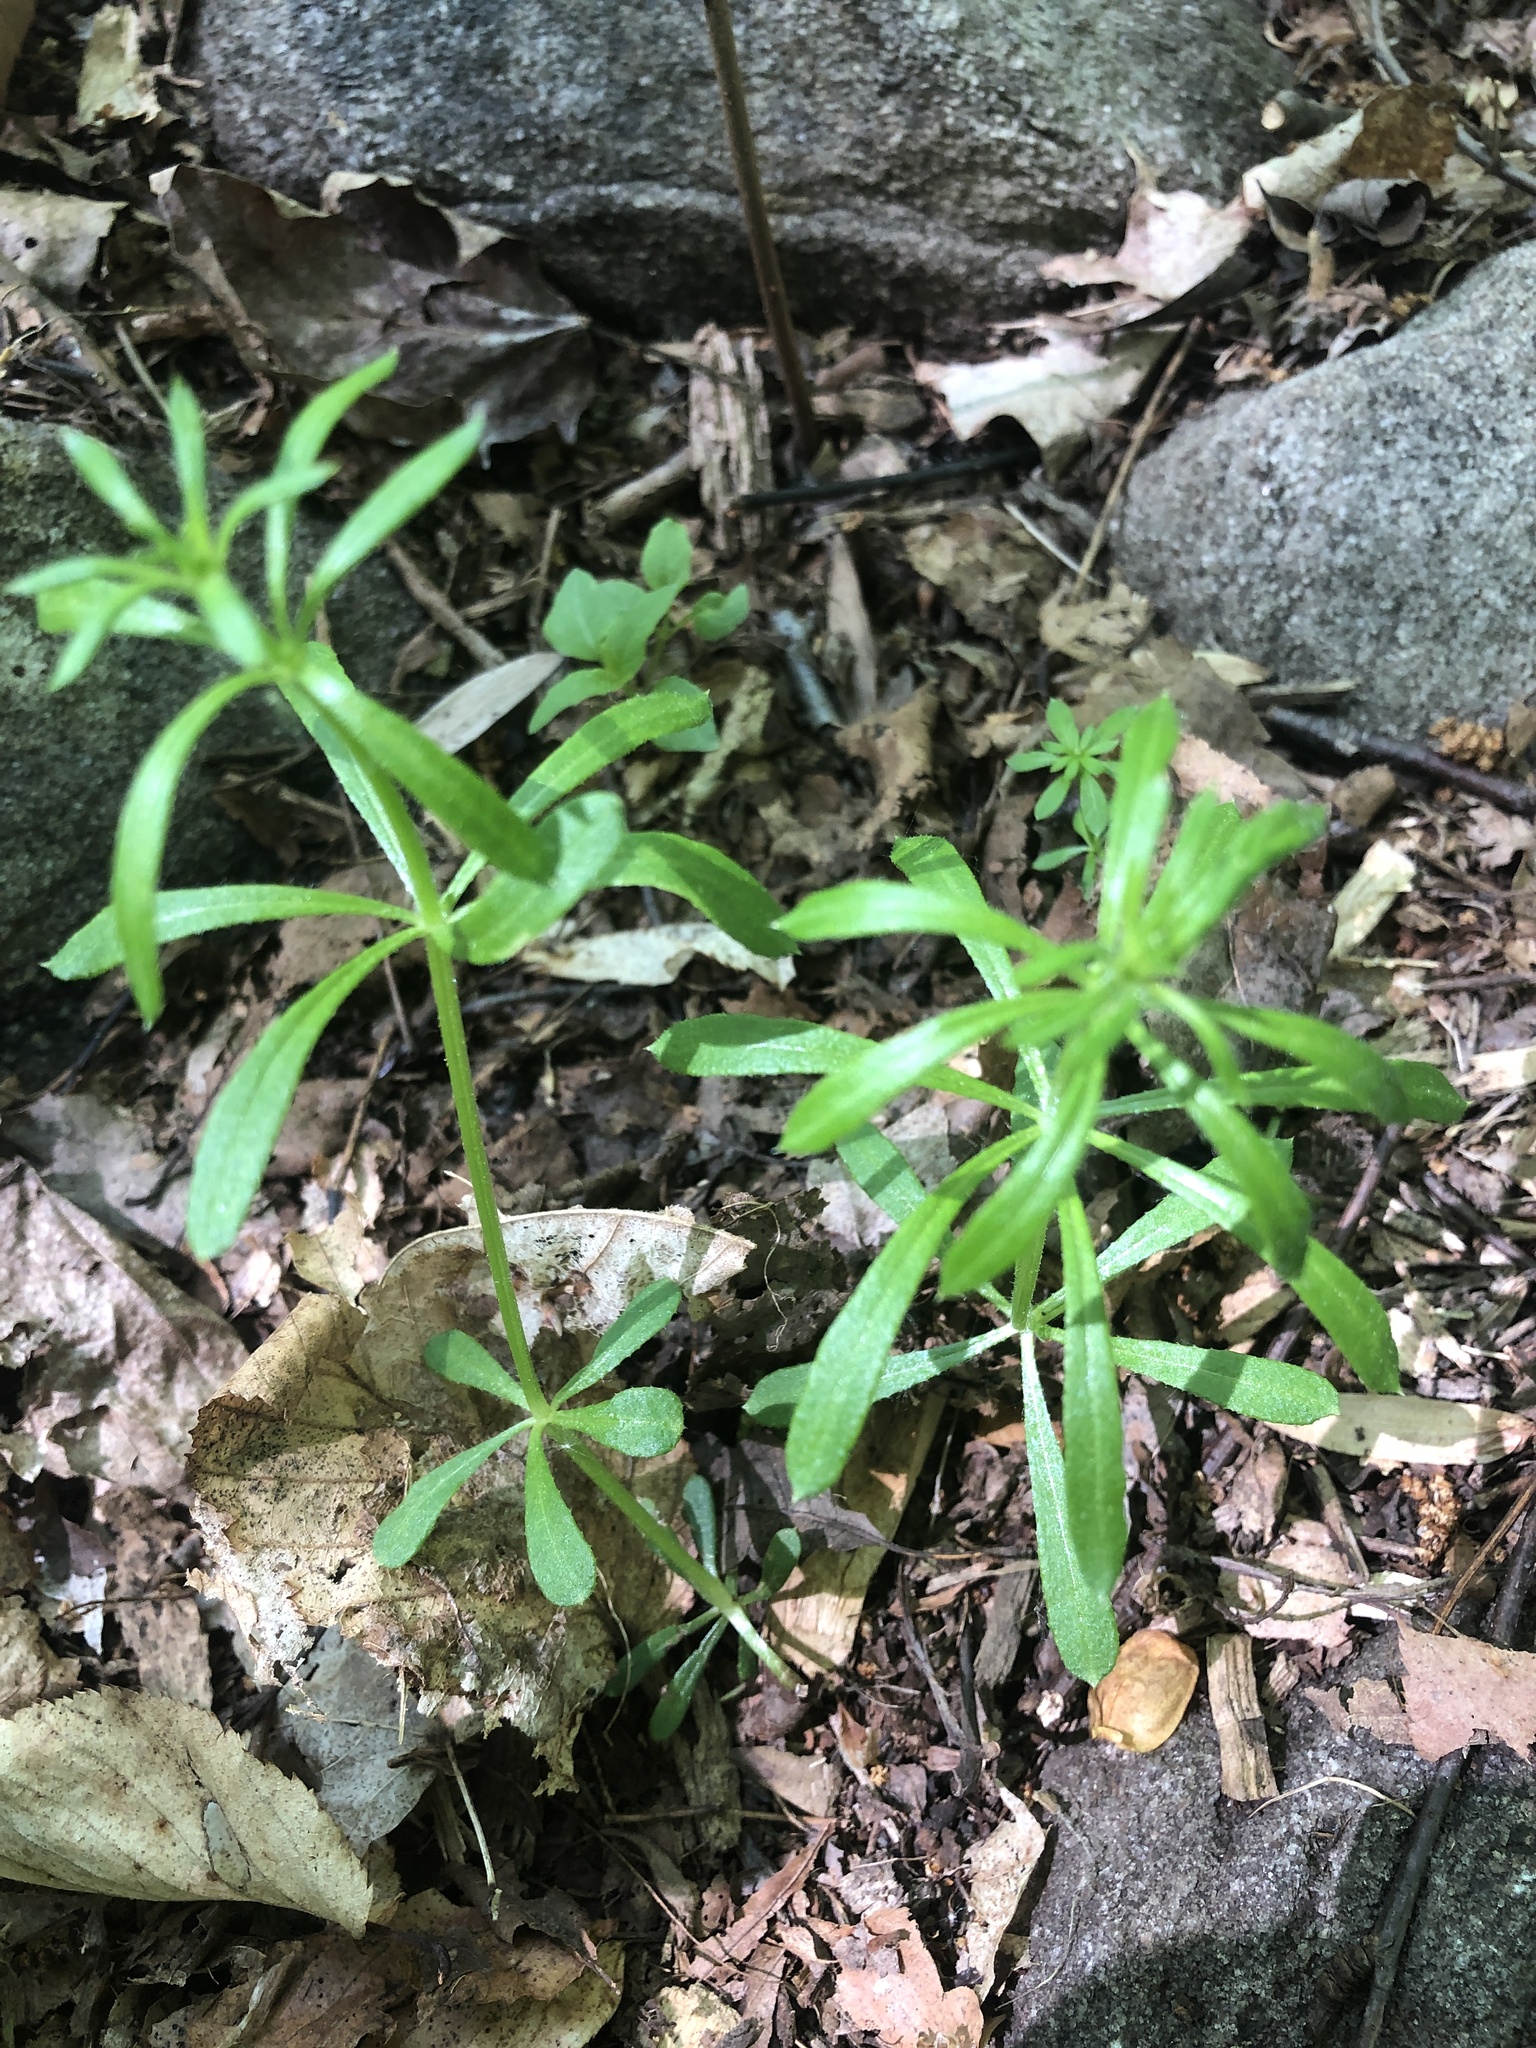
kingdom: Plantae
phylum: Tracheophyta
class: Magnoliopsida
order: Gentianales
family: Rubiaceae
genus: Galium
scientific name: Galium aparine
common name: Cleavers
